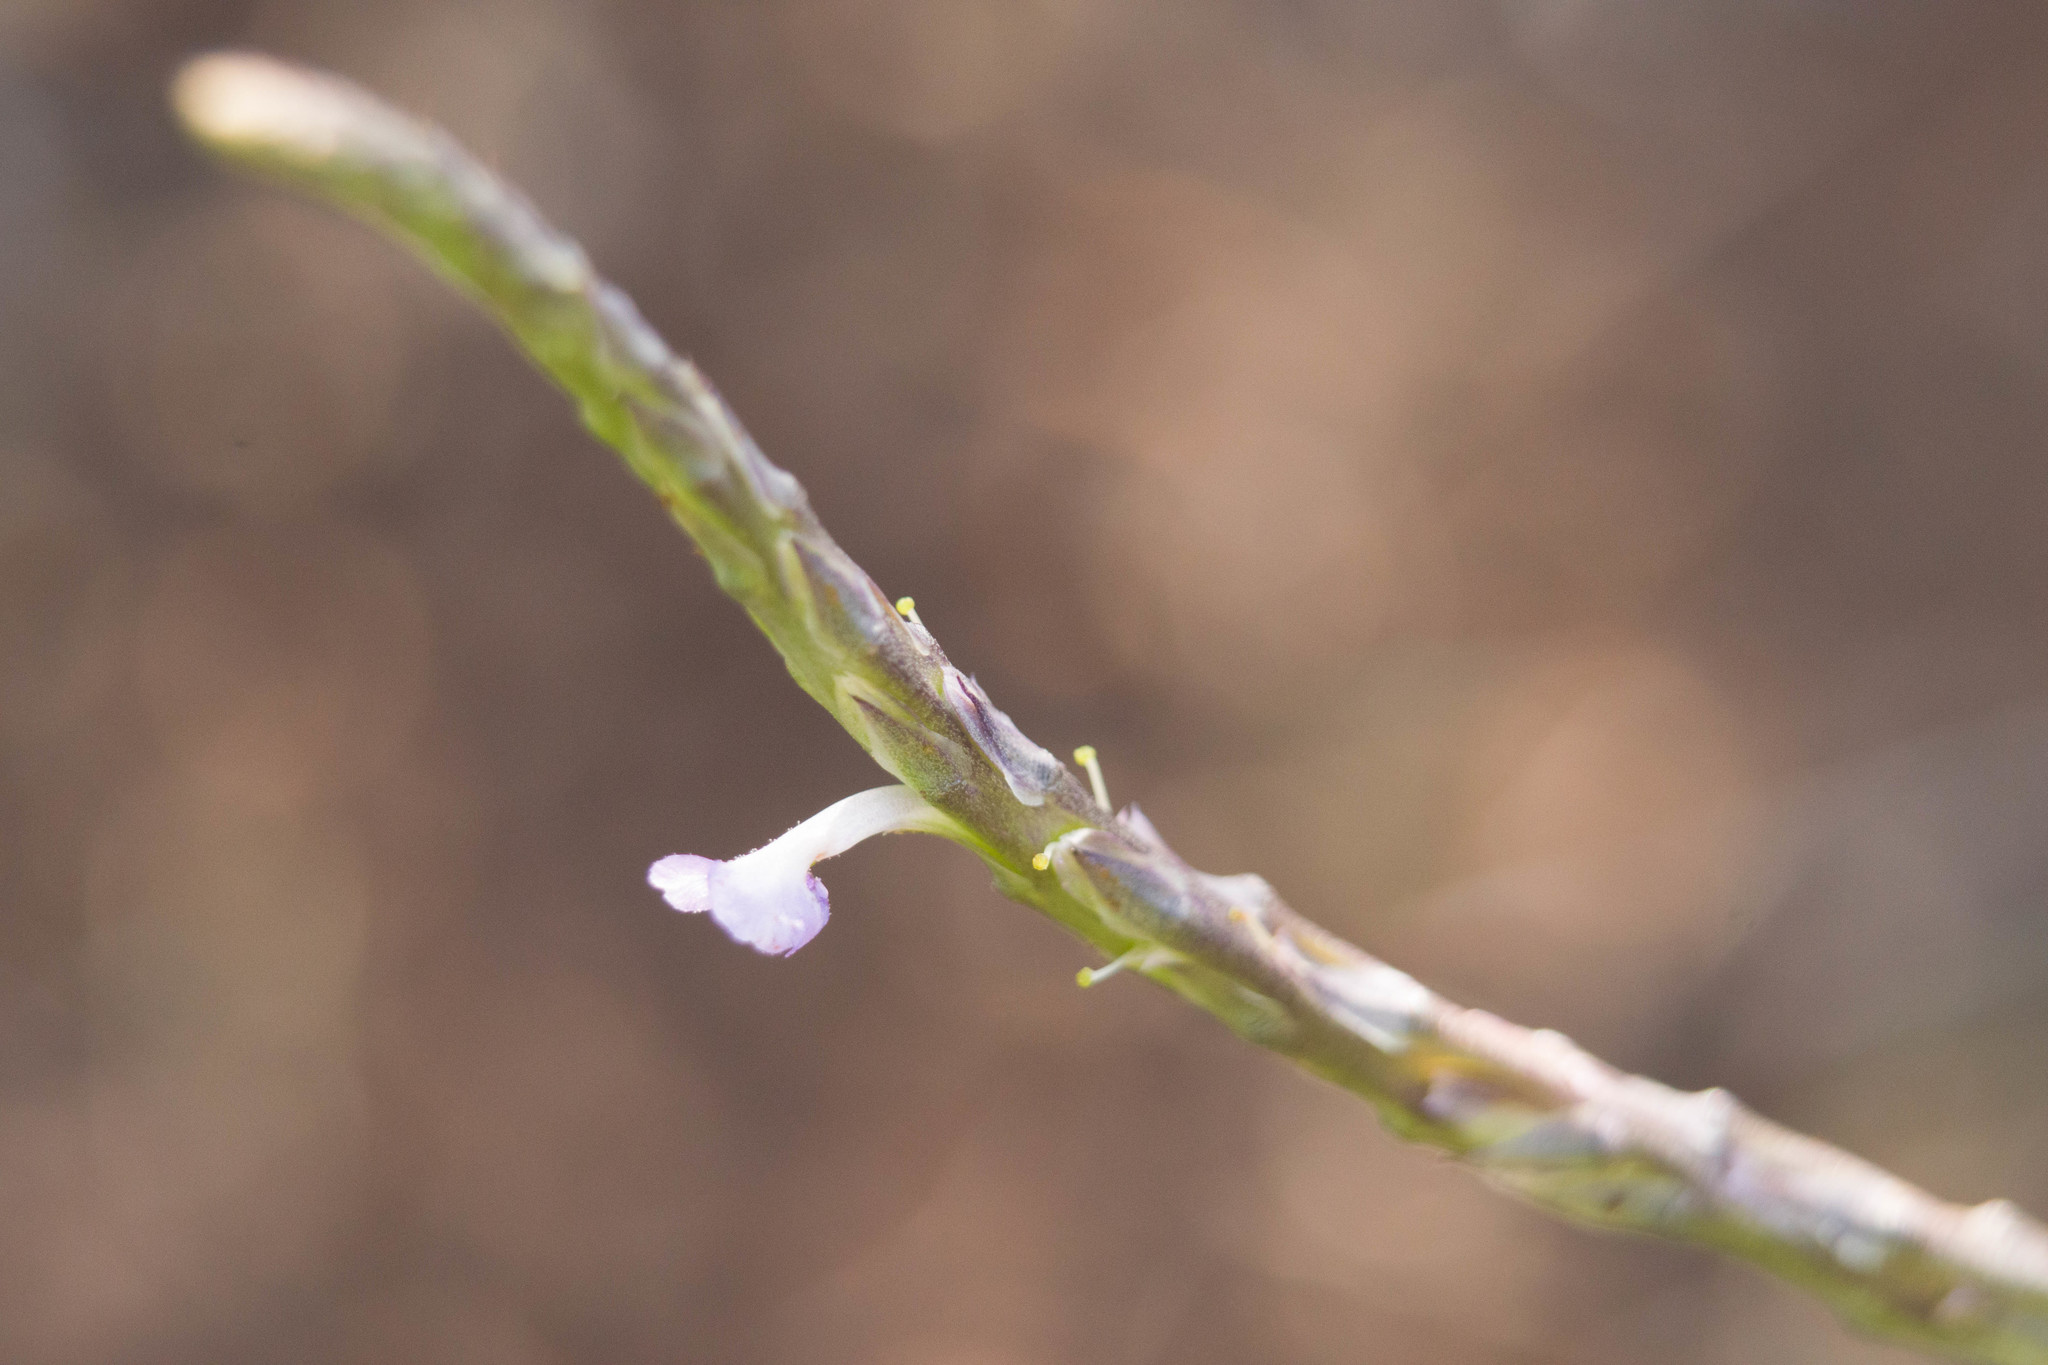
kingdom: Plantae
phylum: Tracheophyta
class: Magnoliopsida
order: Lamiales
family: Verbenaceae
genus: Stachytarpheta
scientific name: Stachytarpheta jamaicensis
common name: Light-blue snakeweed
